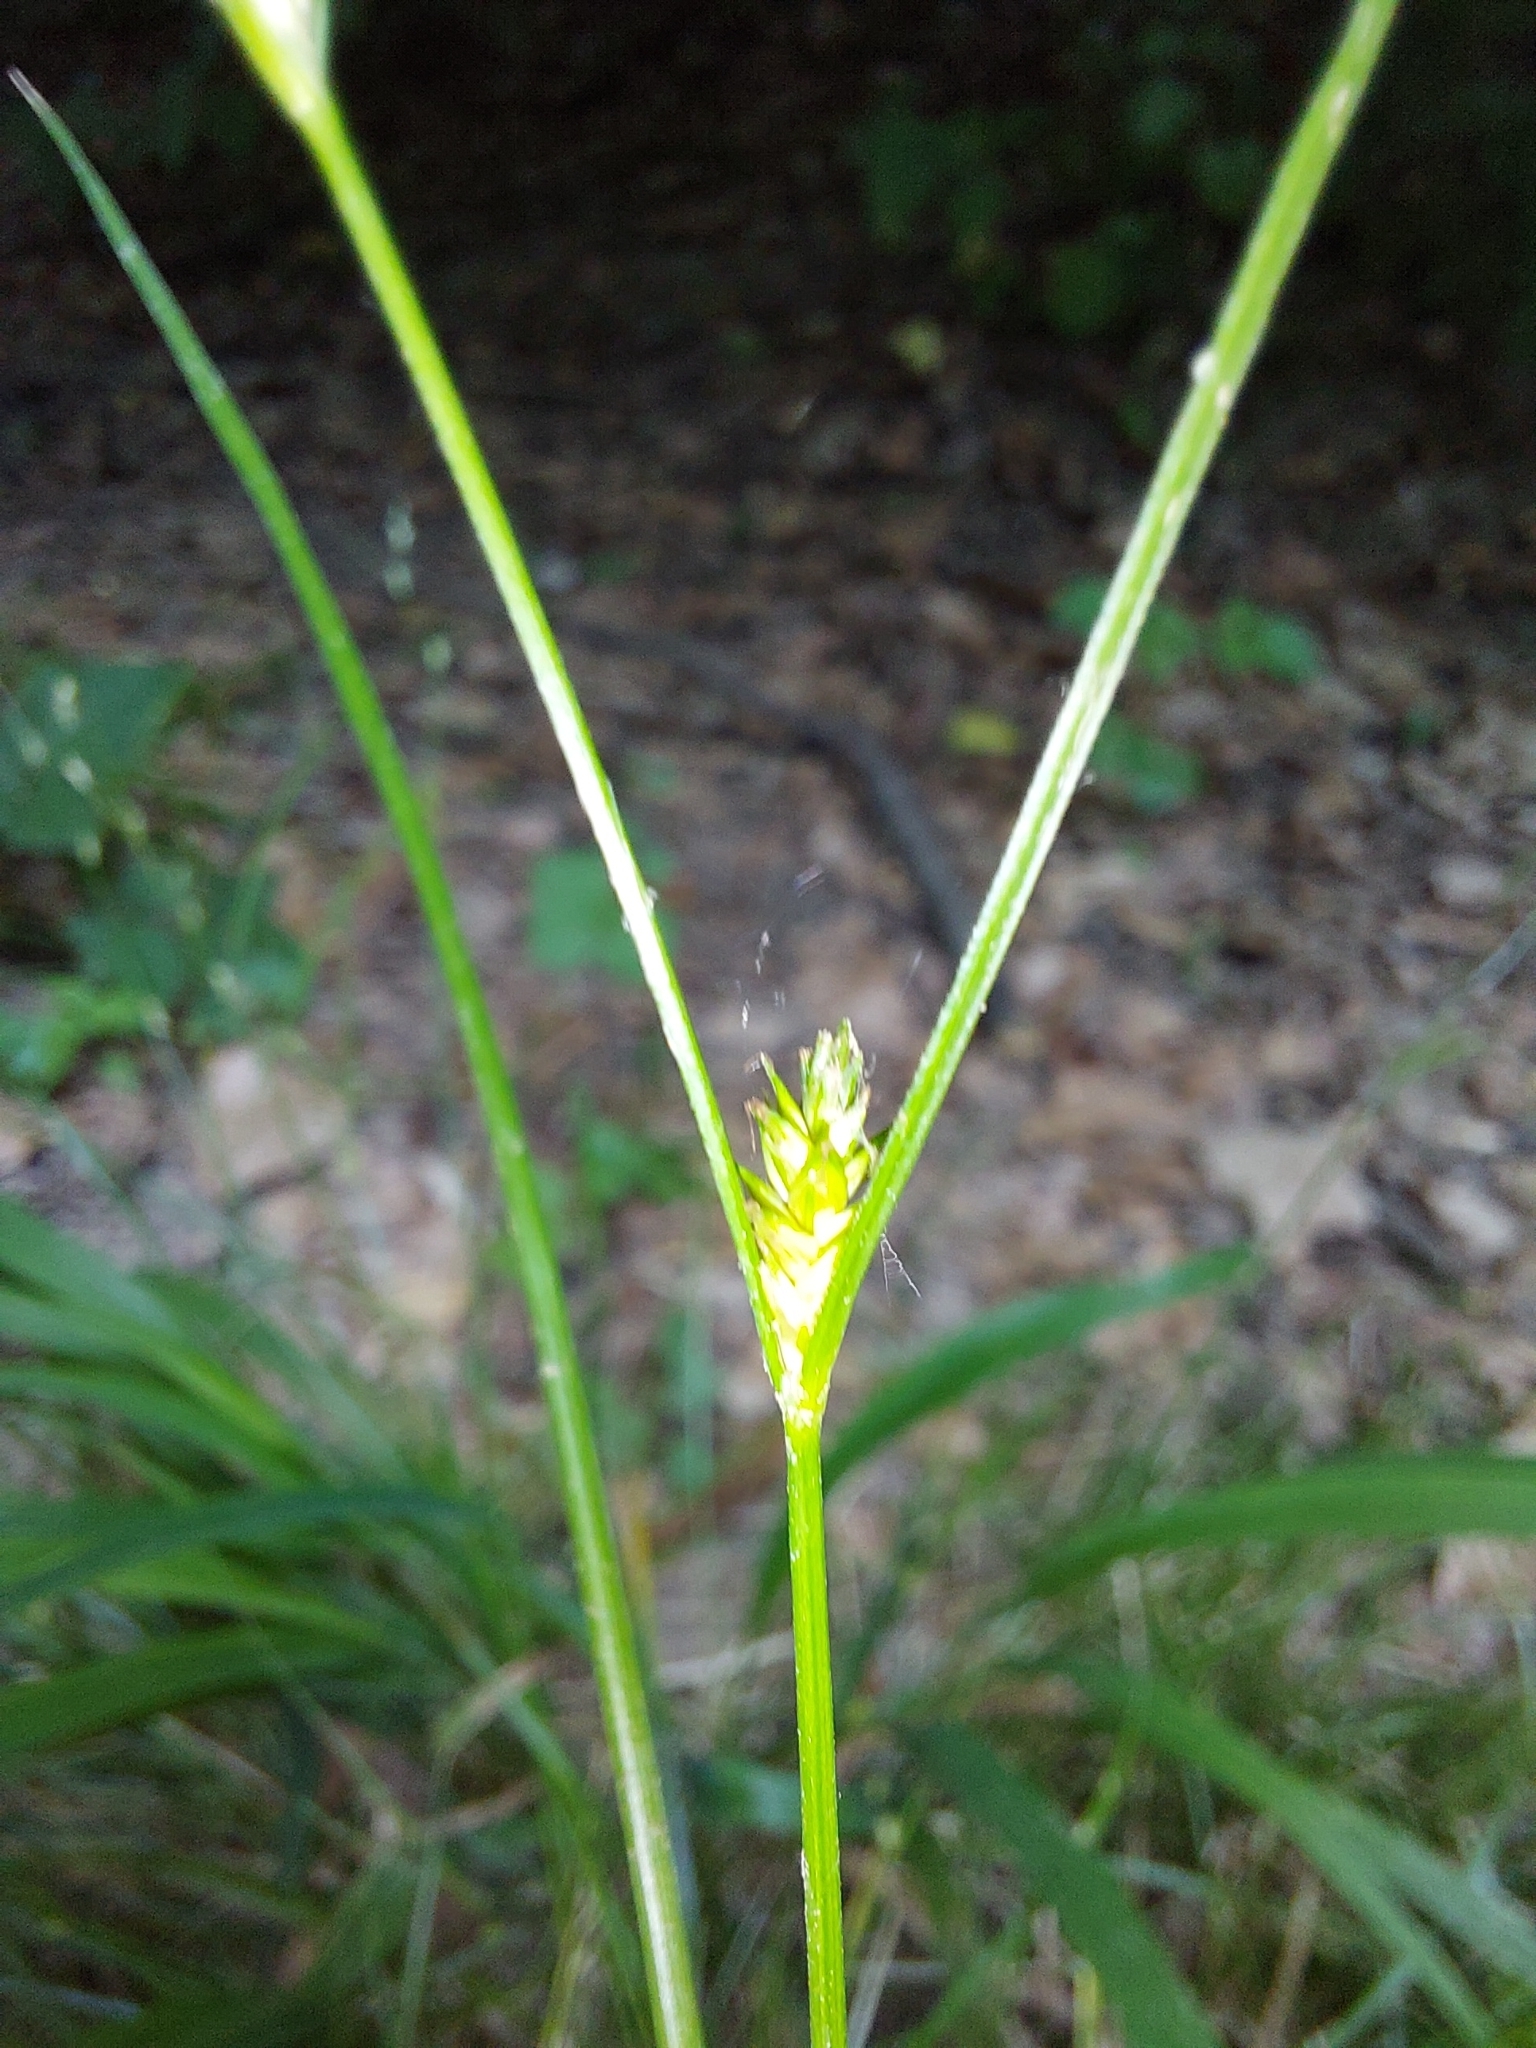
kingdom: Plantae
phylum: Tracheophyta
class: Liliopsida
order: Poales
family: Cyperaceae
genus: Carex
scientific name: Carex remota
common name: Remote sedge
